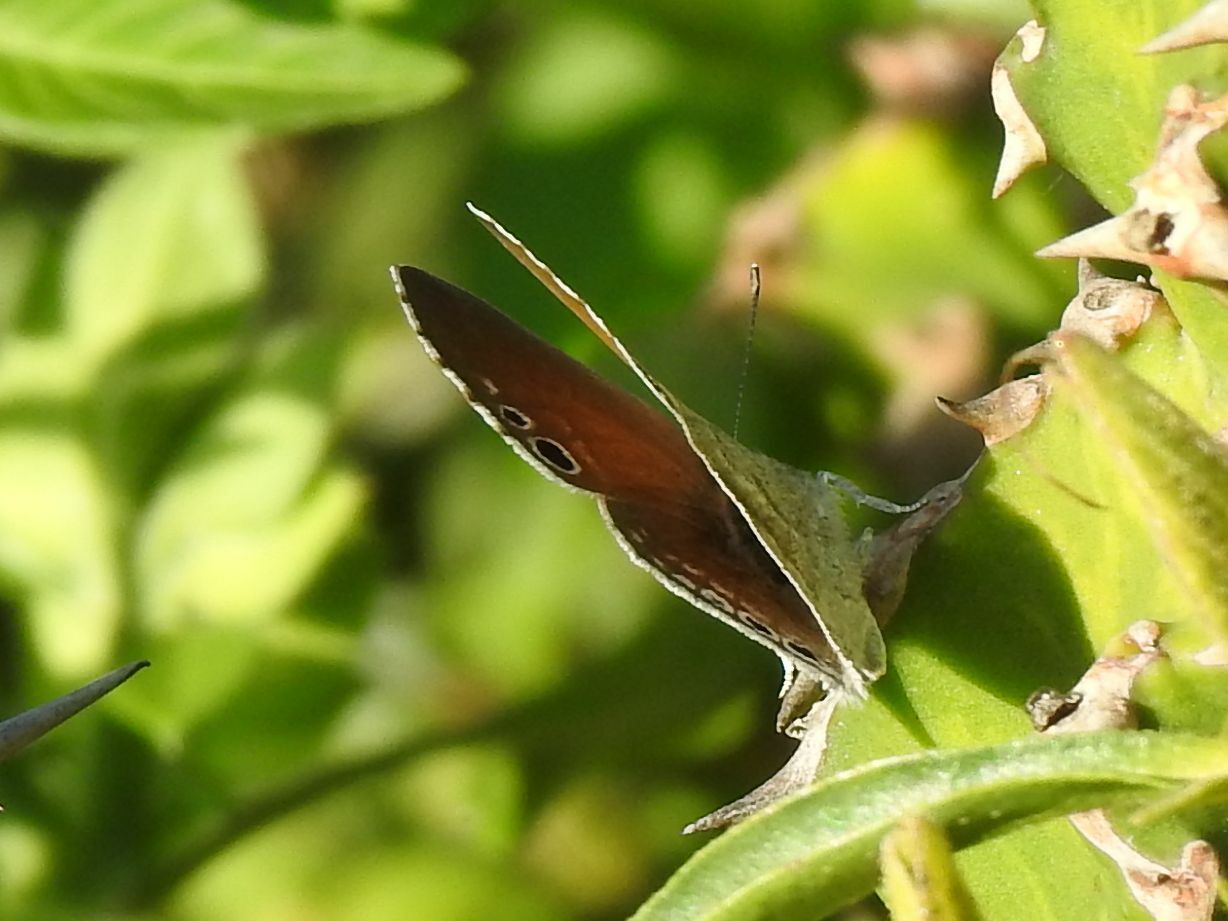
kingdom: Animalia
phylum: Arthropoda
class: Insecta
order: Lepidoptera
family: Lycaenidae
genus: Leptomyrina
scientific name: Leptomyrina gorgias
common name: Common black-eye
